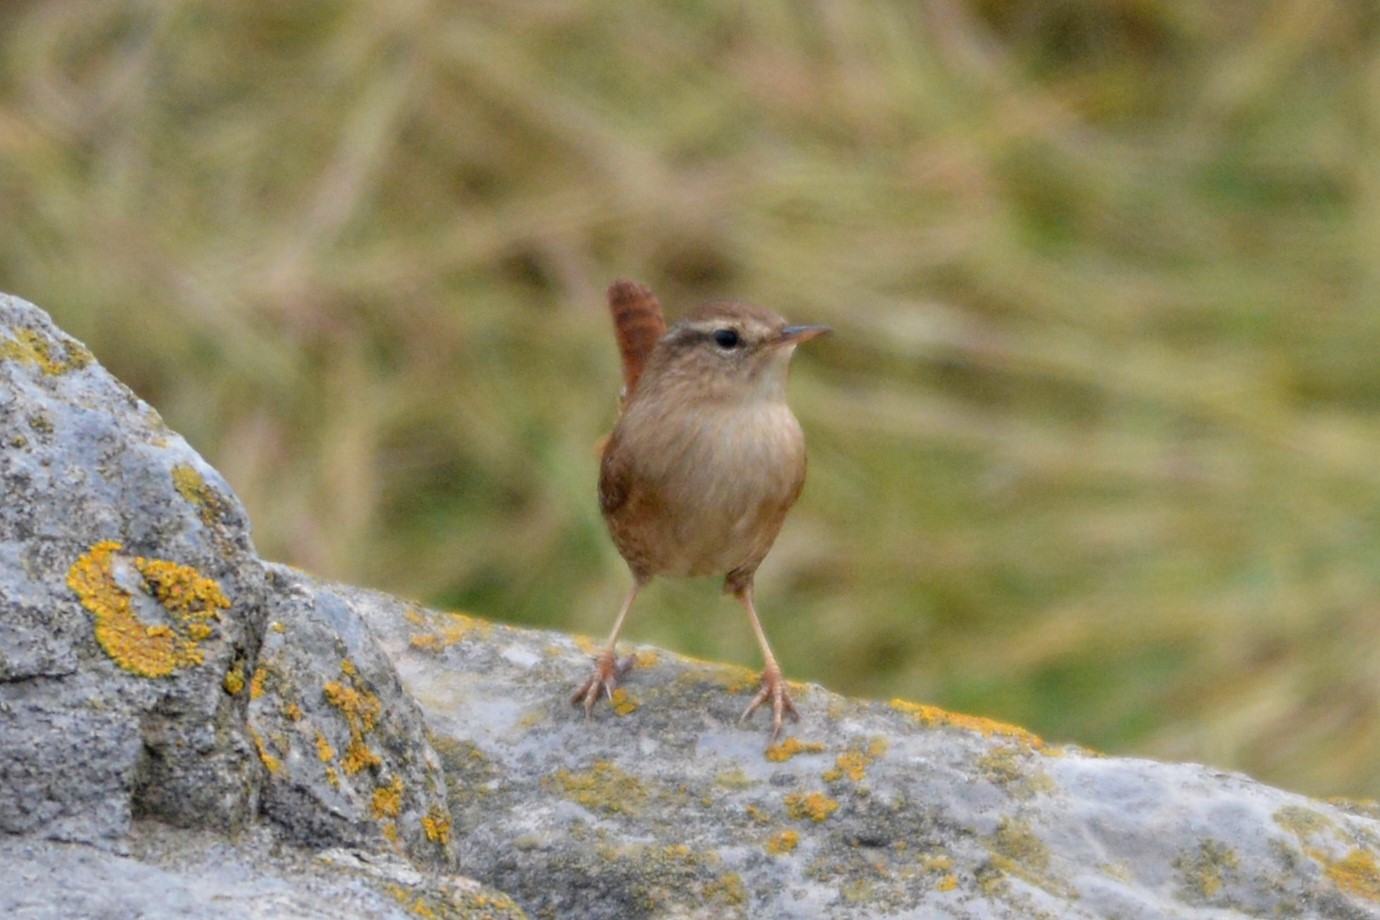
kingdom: Animalia
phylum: Chordata
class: Aves
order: Passeriformes
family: Troglodytidae
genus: Troglodytes
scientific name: Troglodytes troglodytes
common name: Eurasian wren
